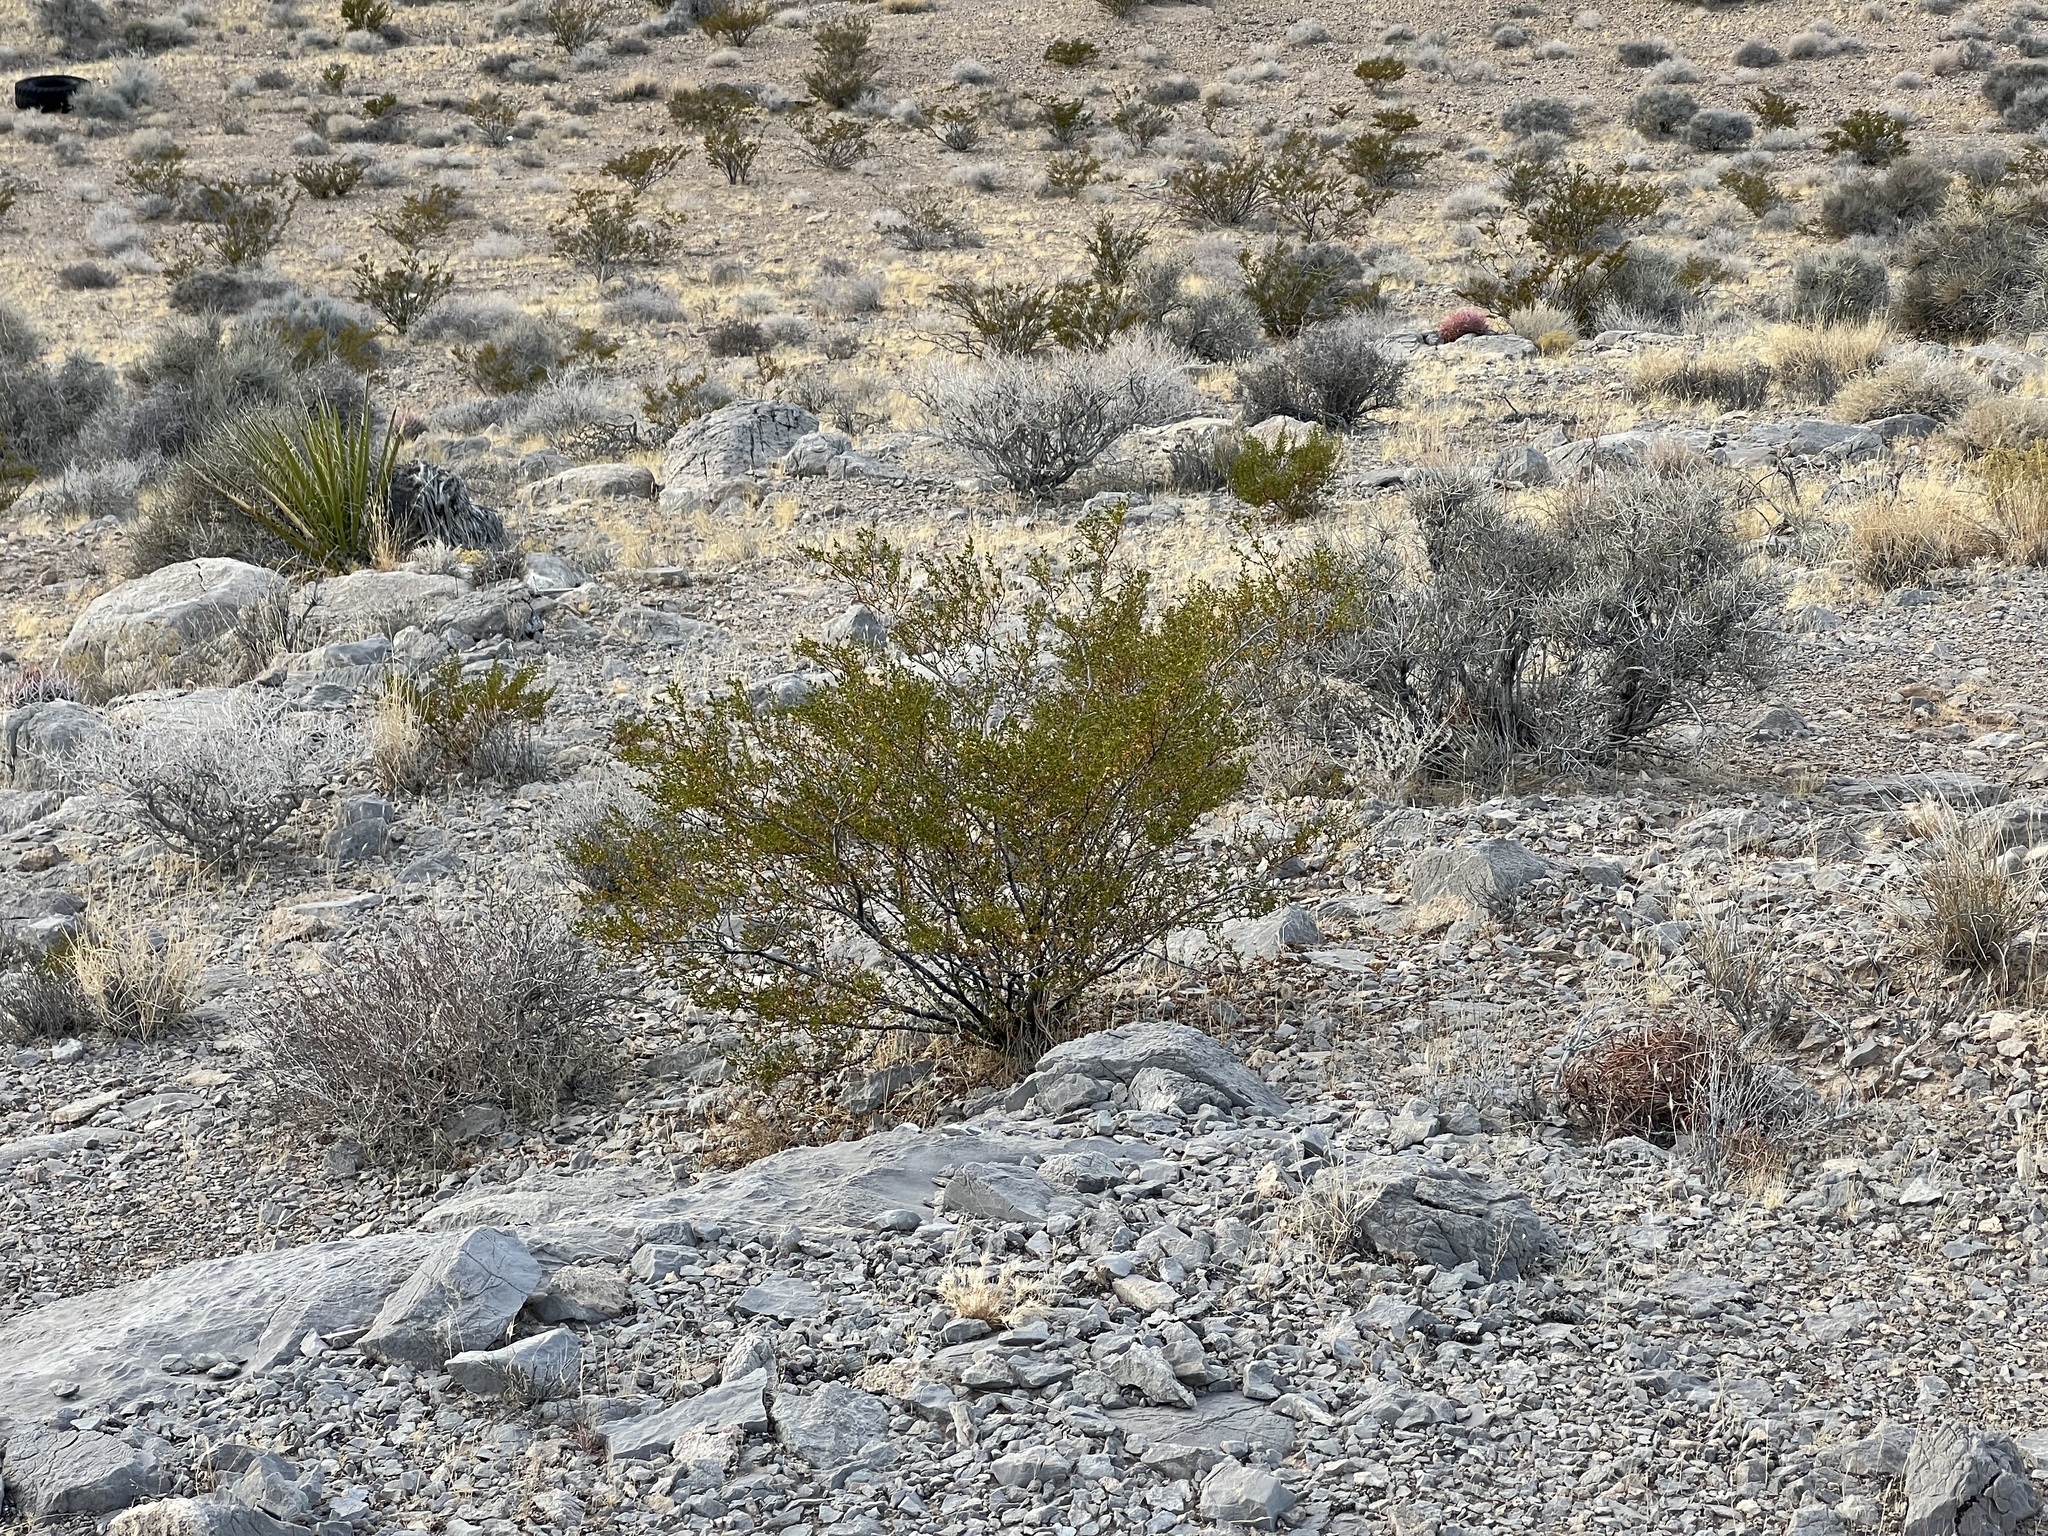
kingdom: Plantae
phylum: Tracheophyta
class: Magnoliopsida
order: Zygophyllales
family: Zygophyllaceae
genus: Larrea
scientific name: Larrea tridentata
